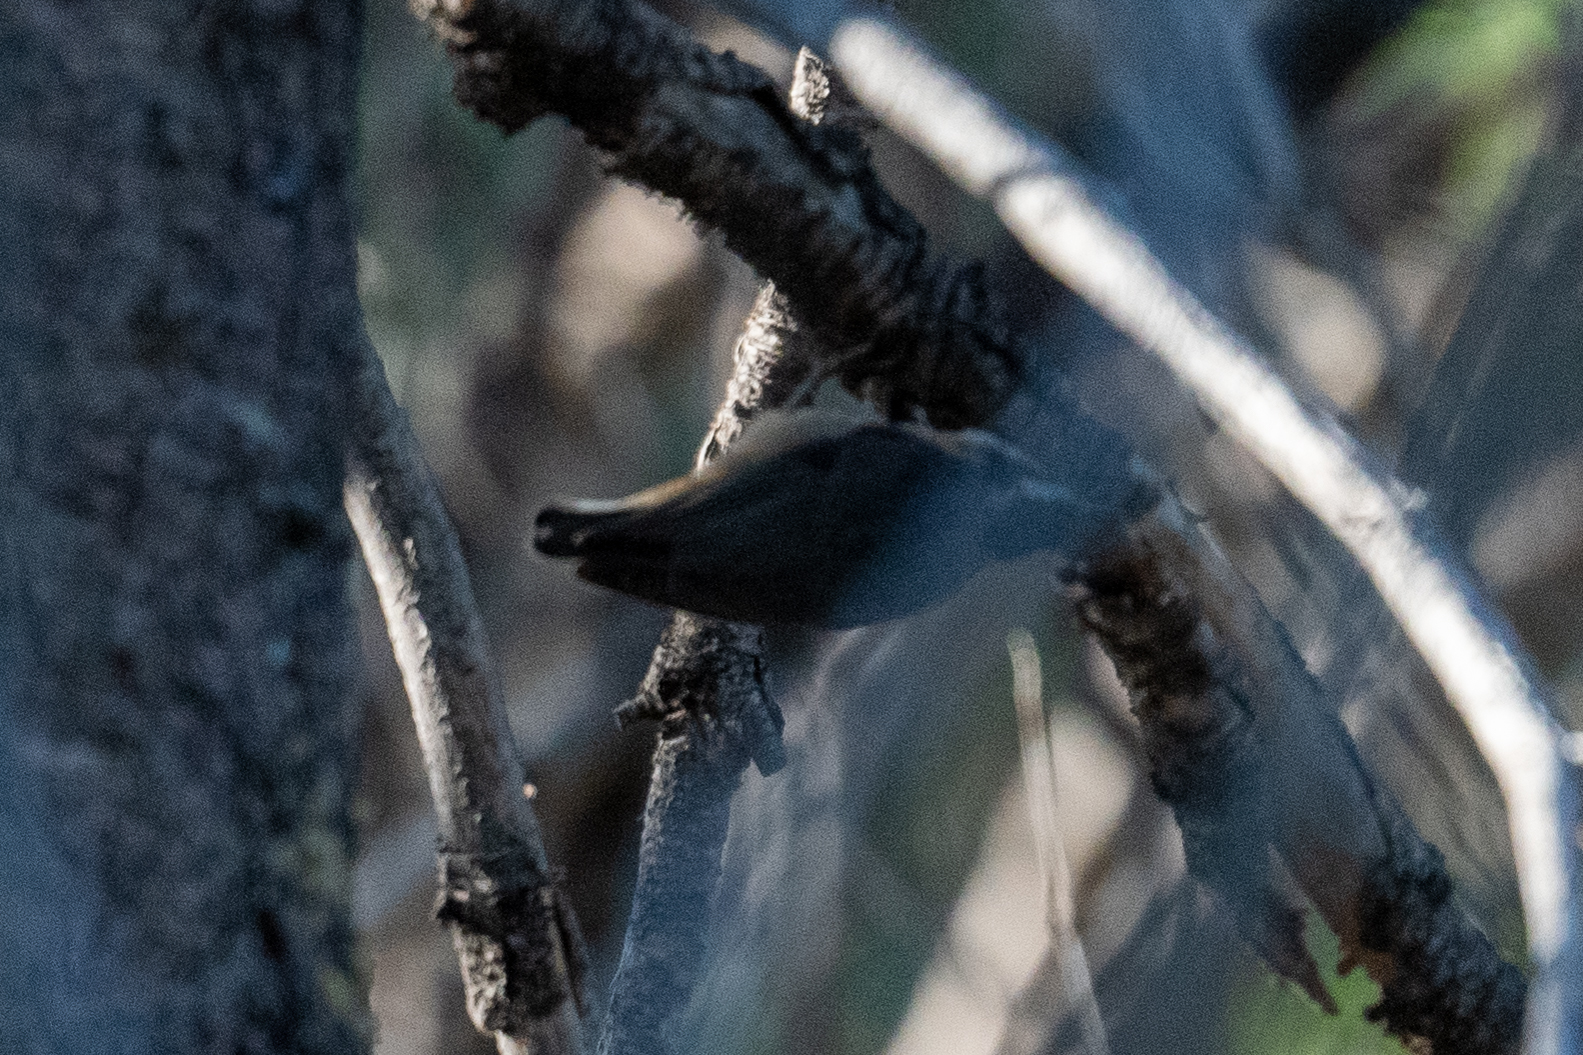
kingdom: Animalia
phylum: Chordata
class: Aves
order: Passeriformes
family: Sittidae
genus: Sitta
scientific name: Sitta canadensis
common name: Red-breasted nuthatch
